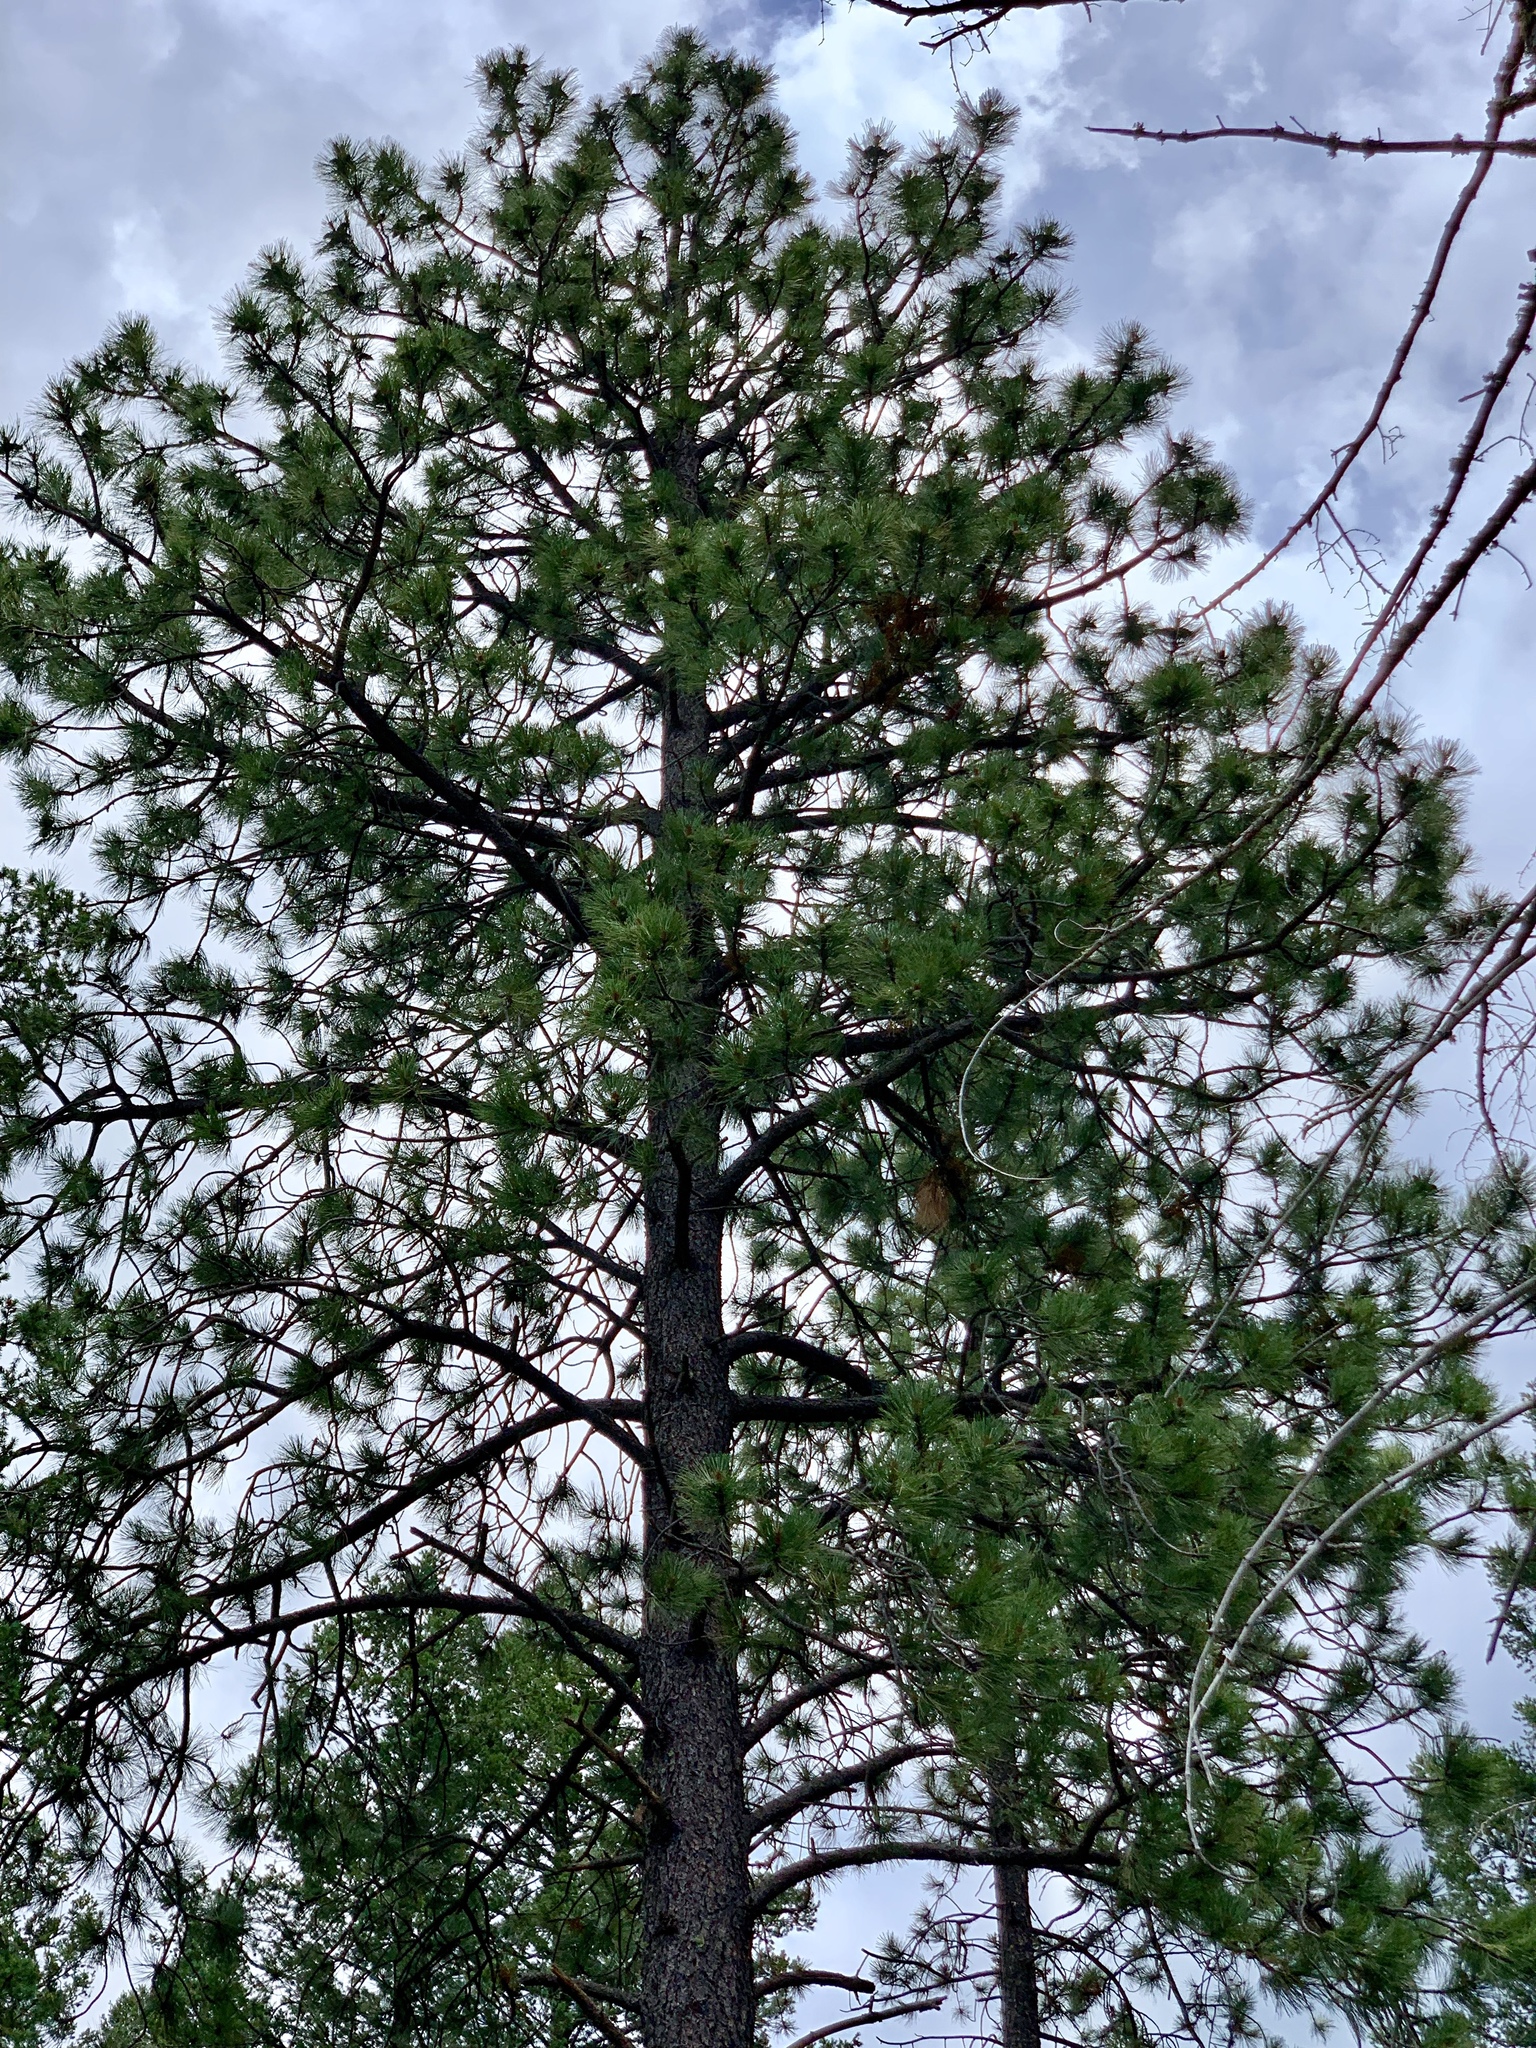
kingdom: Plantae
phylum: Tracheophyta
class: Pinopsida
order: Pinales
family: Pinaceae
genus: Pinus
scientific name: Pinus ponderosa
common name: Western yellow-pine
